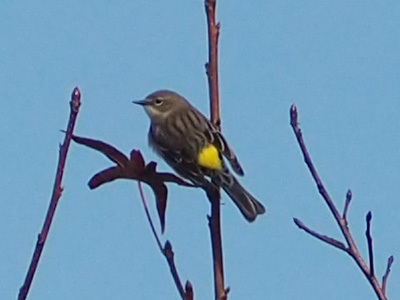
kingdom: Animalia
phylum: Chordata
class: Aves
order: Passeriformes
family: Parulidae
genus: Setophaga
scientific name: Setophaga coronata
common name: Myrtle warbler
